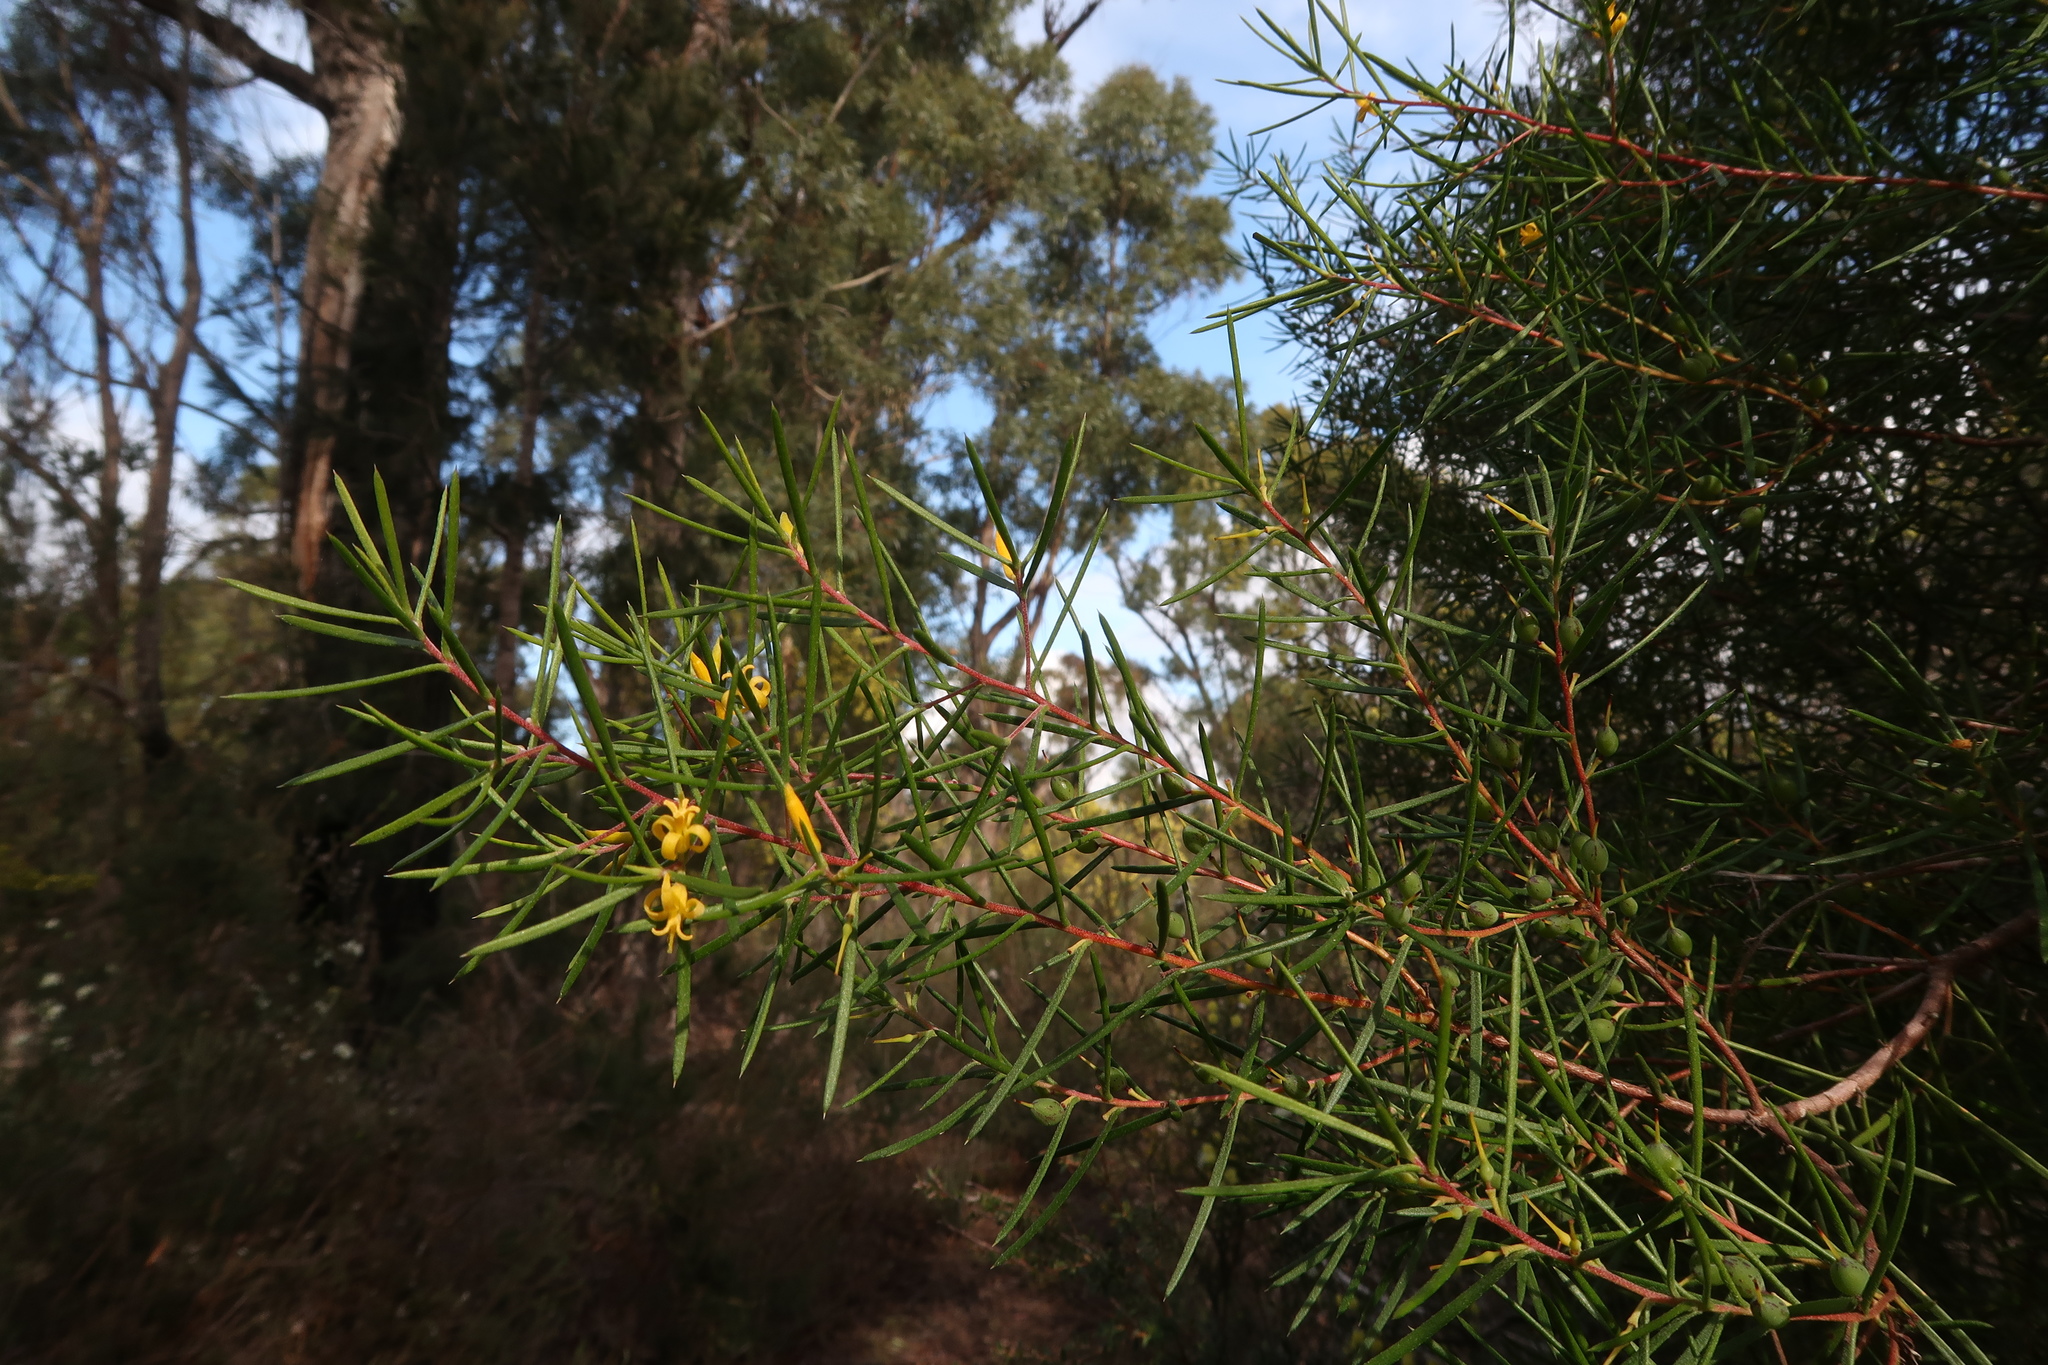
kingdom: Plantae
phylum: Tracheophyta
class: Magnoliopsida
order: Proteales
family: Proteaceae
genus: Persoonia
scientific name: Persoonia juniperina
